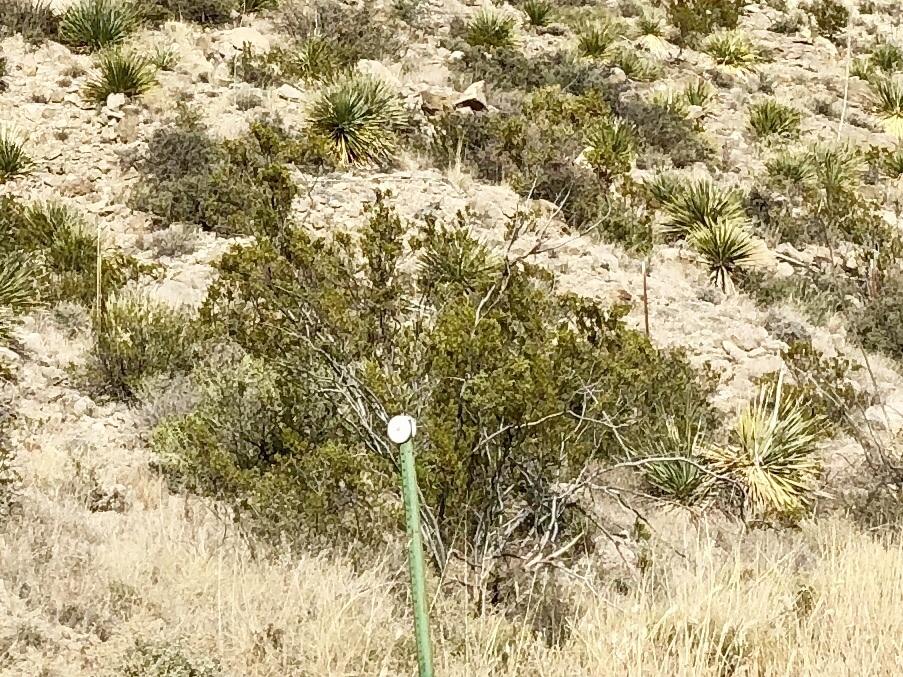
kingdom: Plantae
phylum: Tracheophyta
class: Magnoliopsida
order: Zygophyllales
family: Zygophyllaceae
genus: Larrea
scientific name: Larrea tridentata
